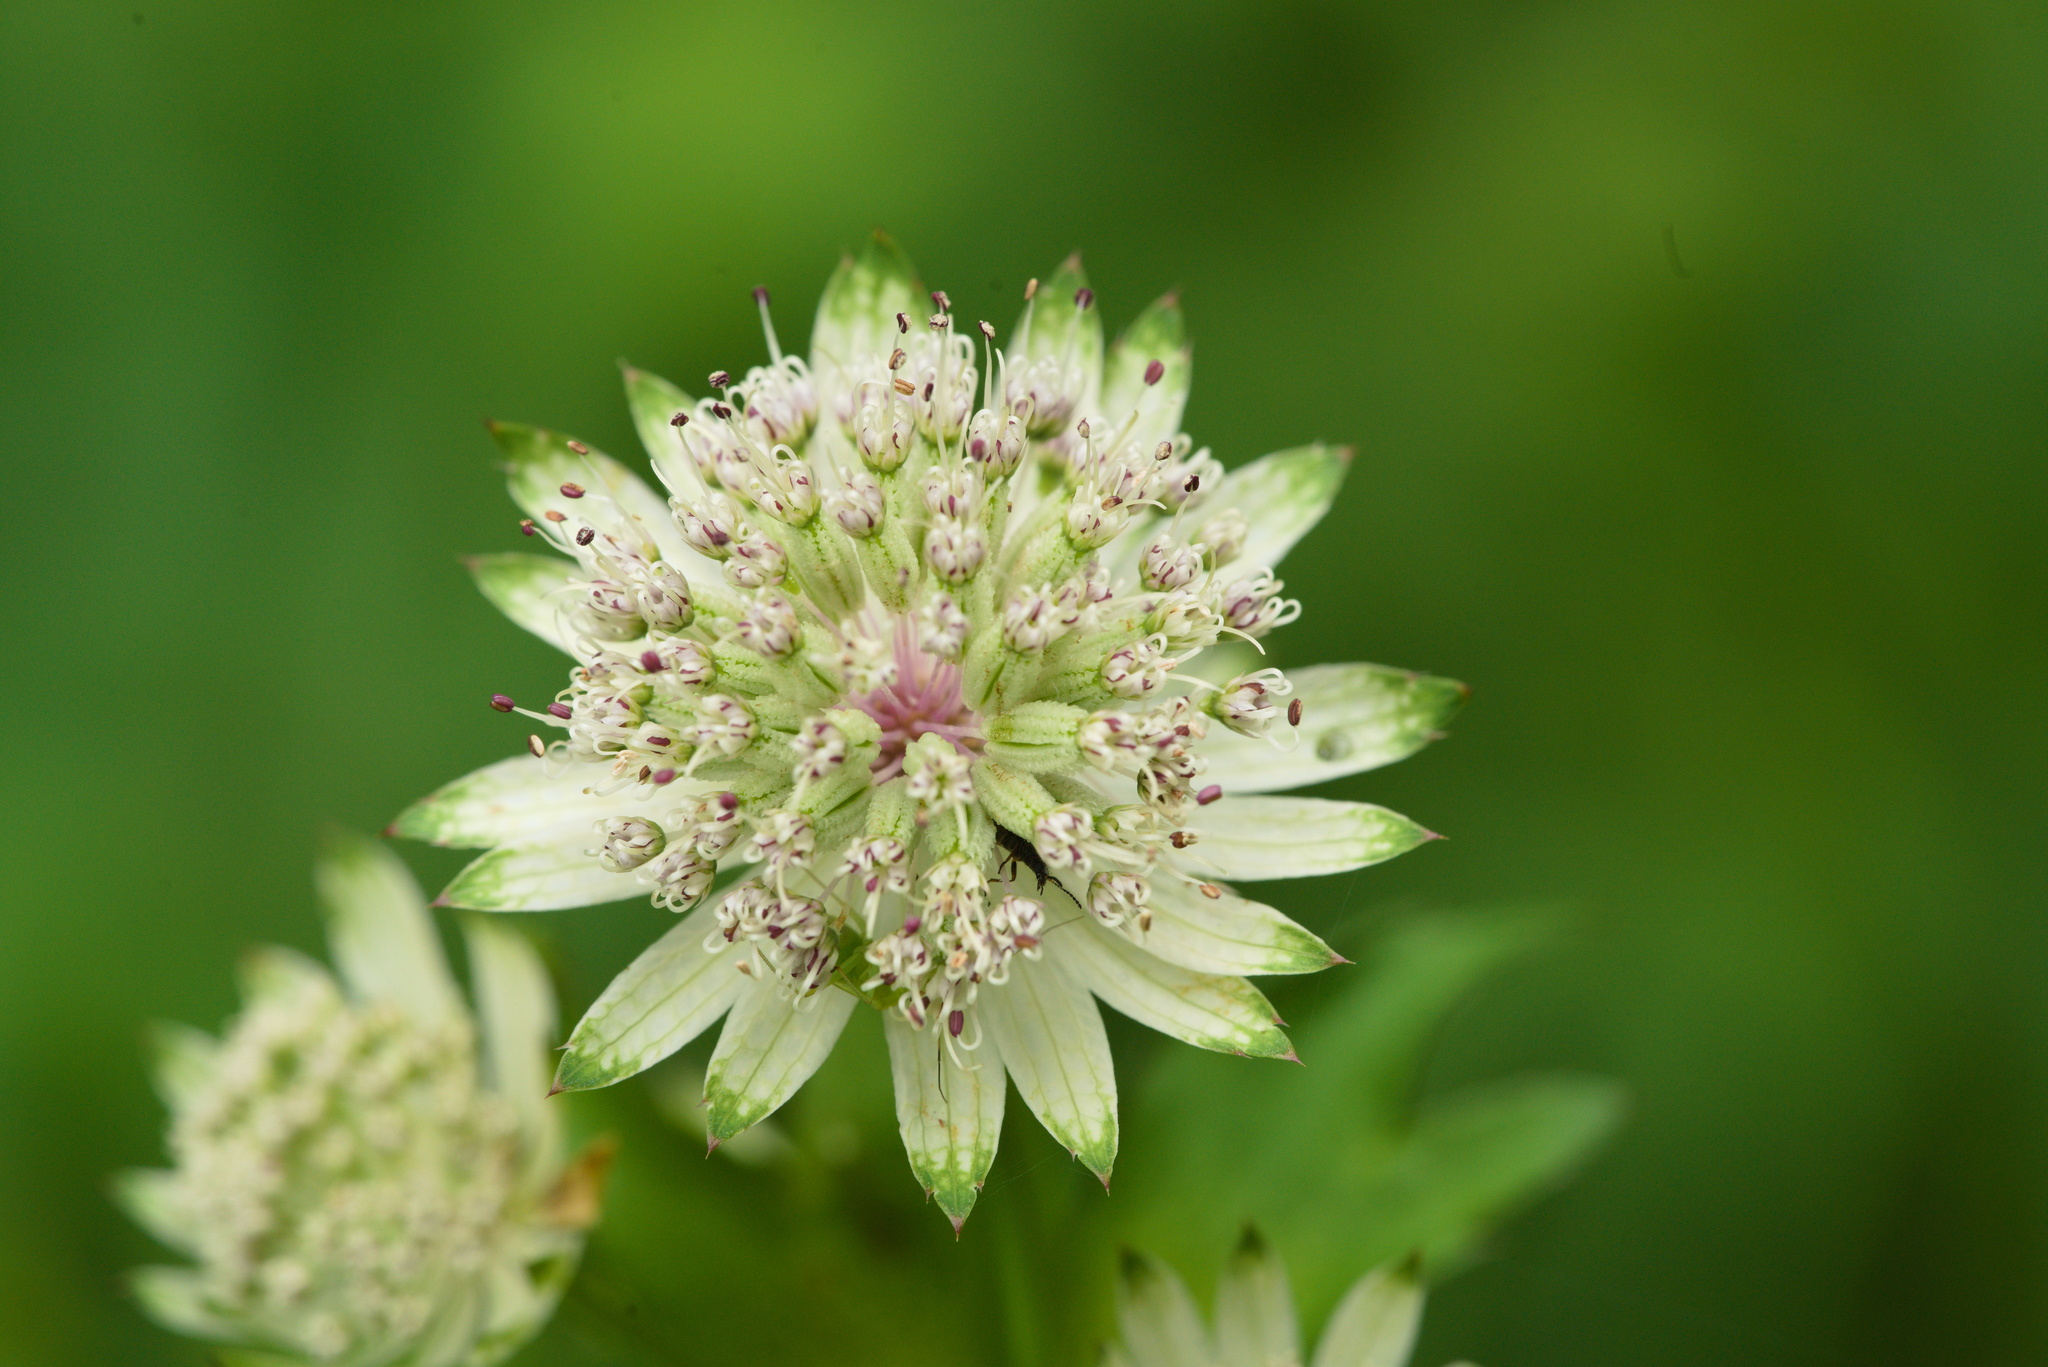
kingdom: Plantae
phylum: Tracheophyta
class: Magnoliopsida
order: Apiales
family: Apiaceae
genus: Astrantia
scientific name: Astrantia major
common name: Greater masterwort
